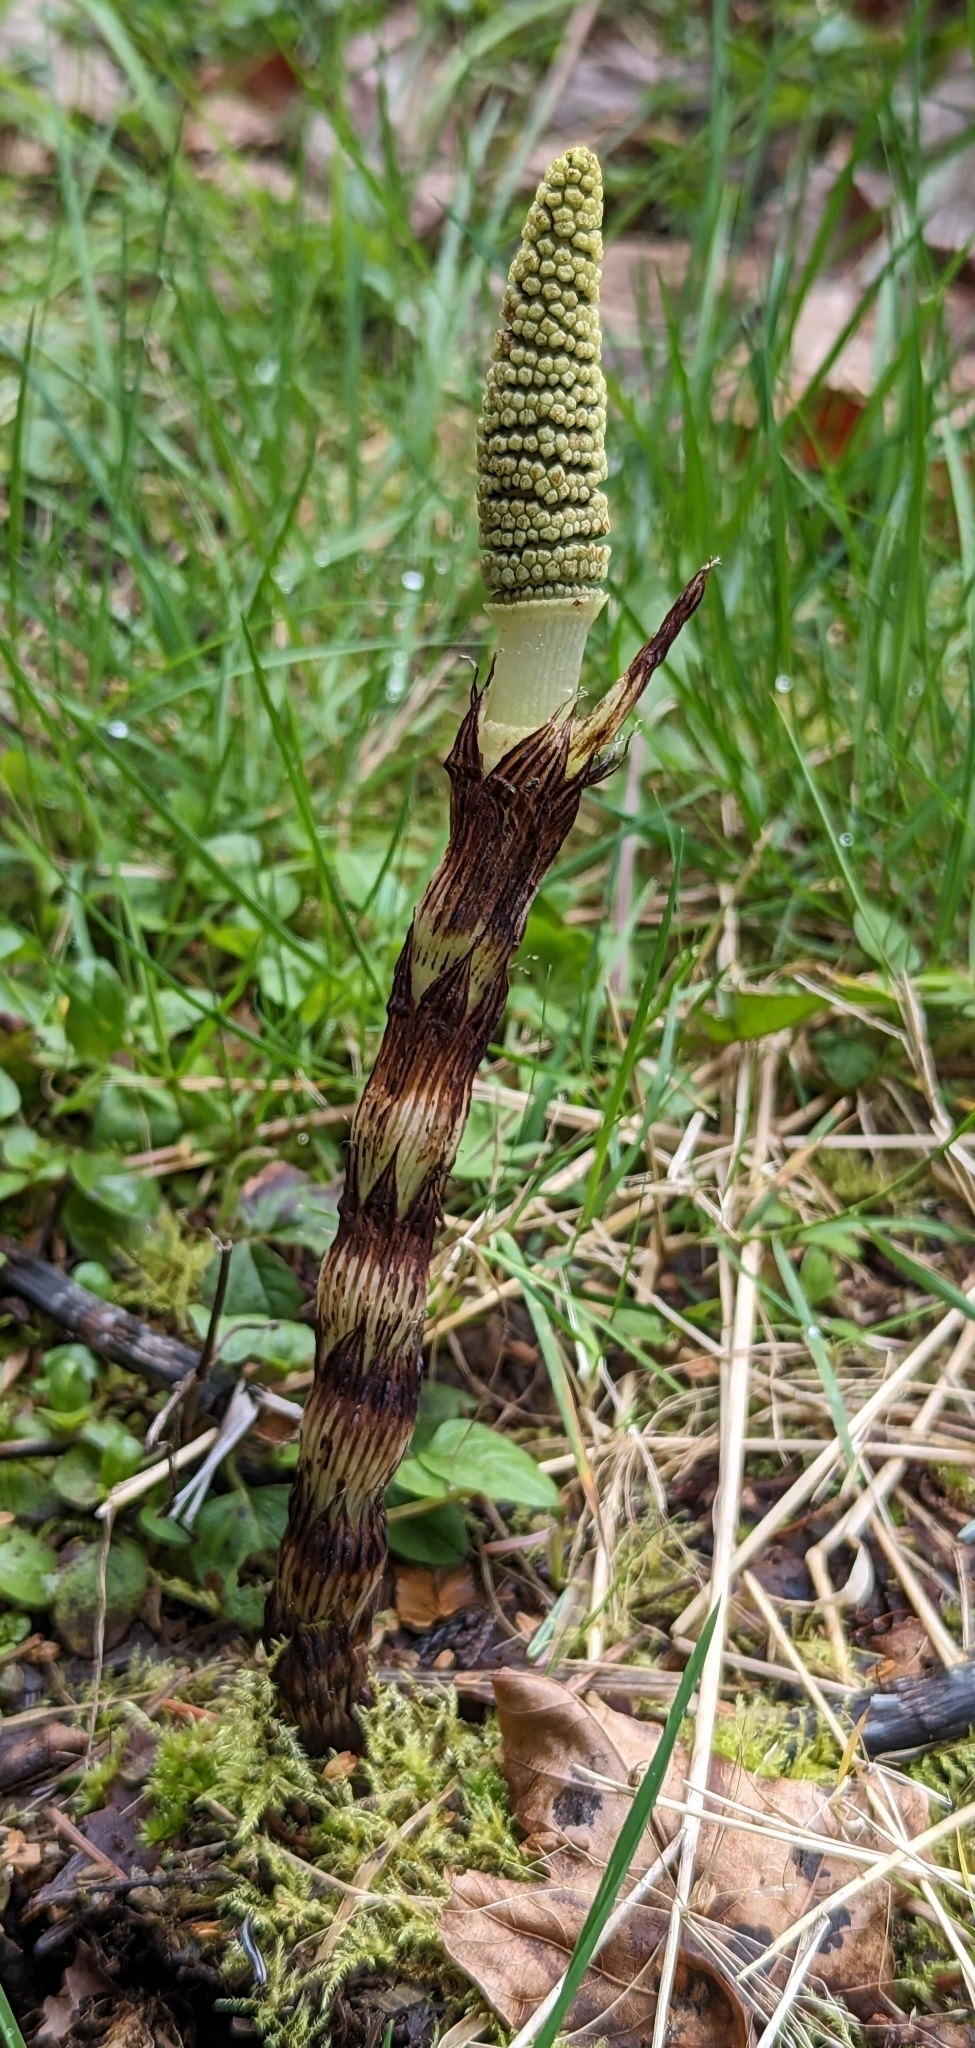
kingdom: Plantae
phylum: Tracheophyta
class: Polypodiopsida
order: Equisetales
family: Equisetaceae
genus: Equisetum
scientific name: Equisetum braunii
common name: Braun's horsetail
